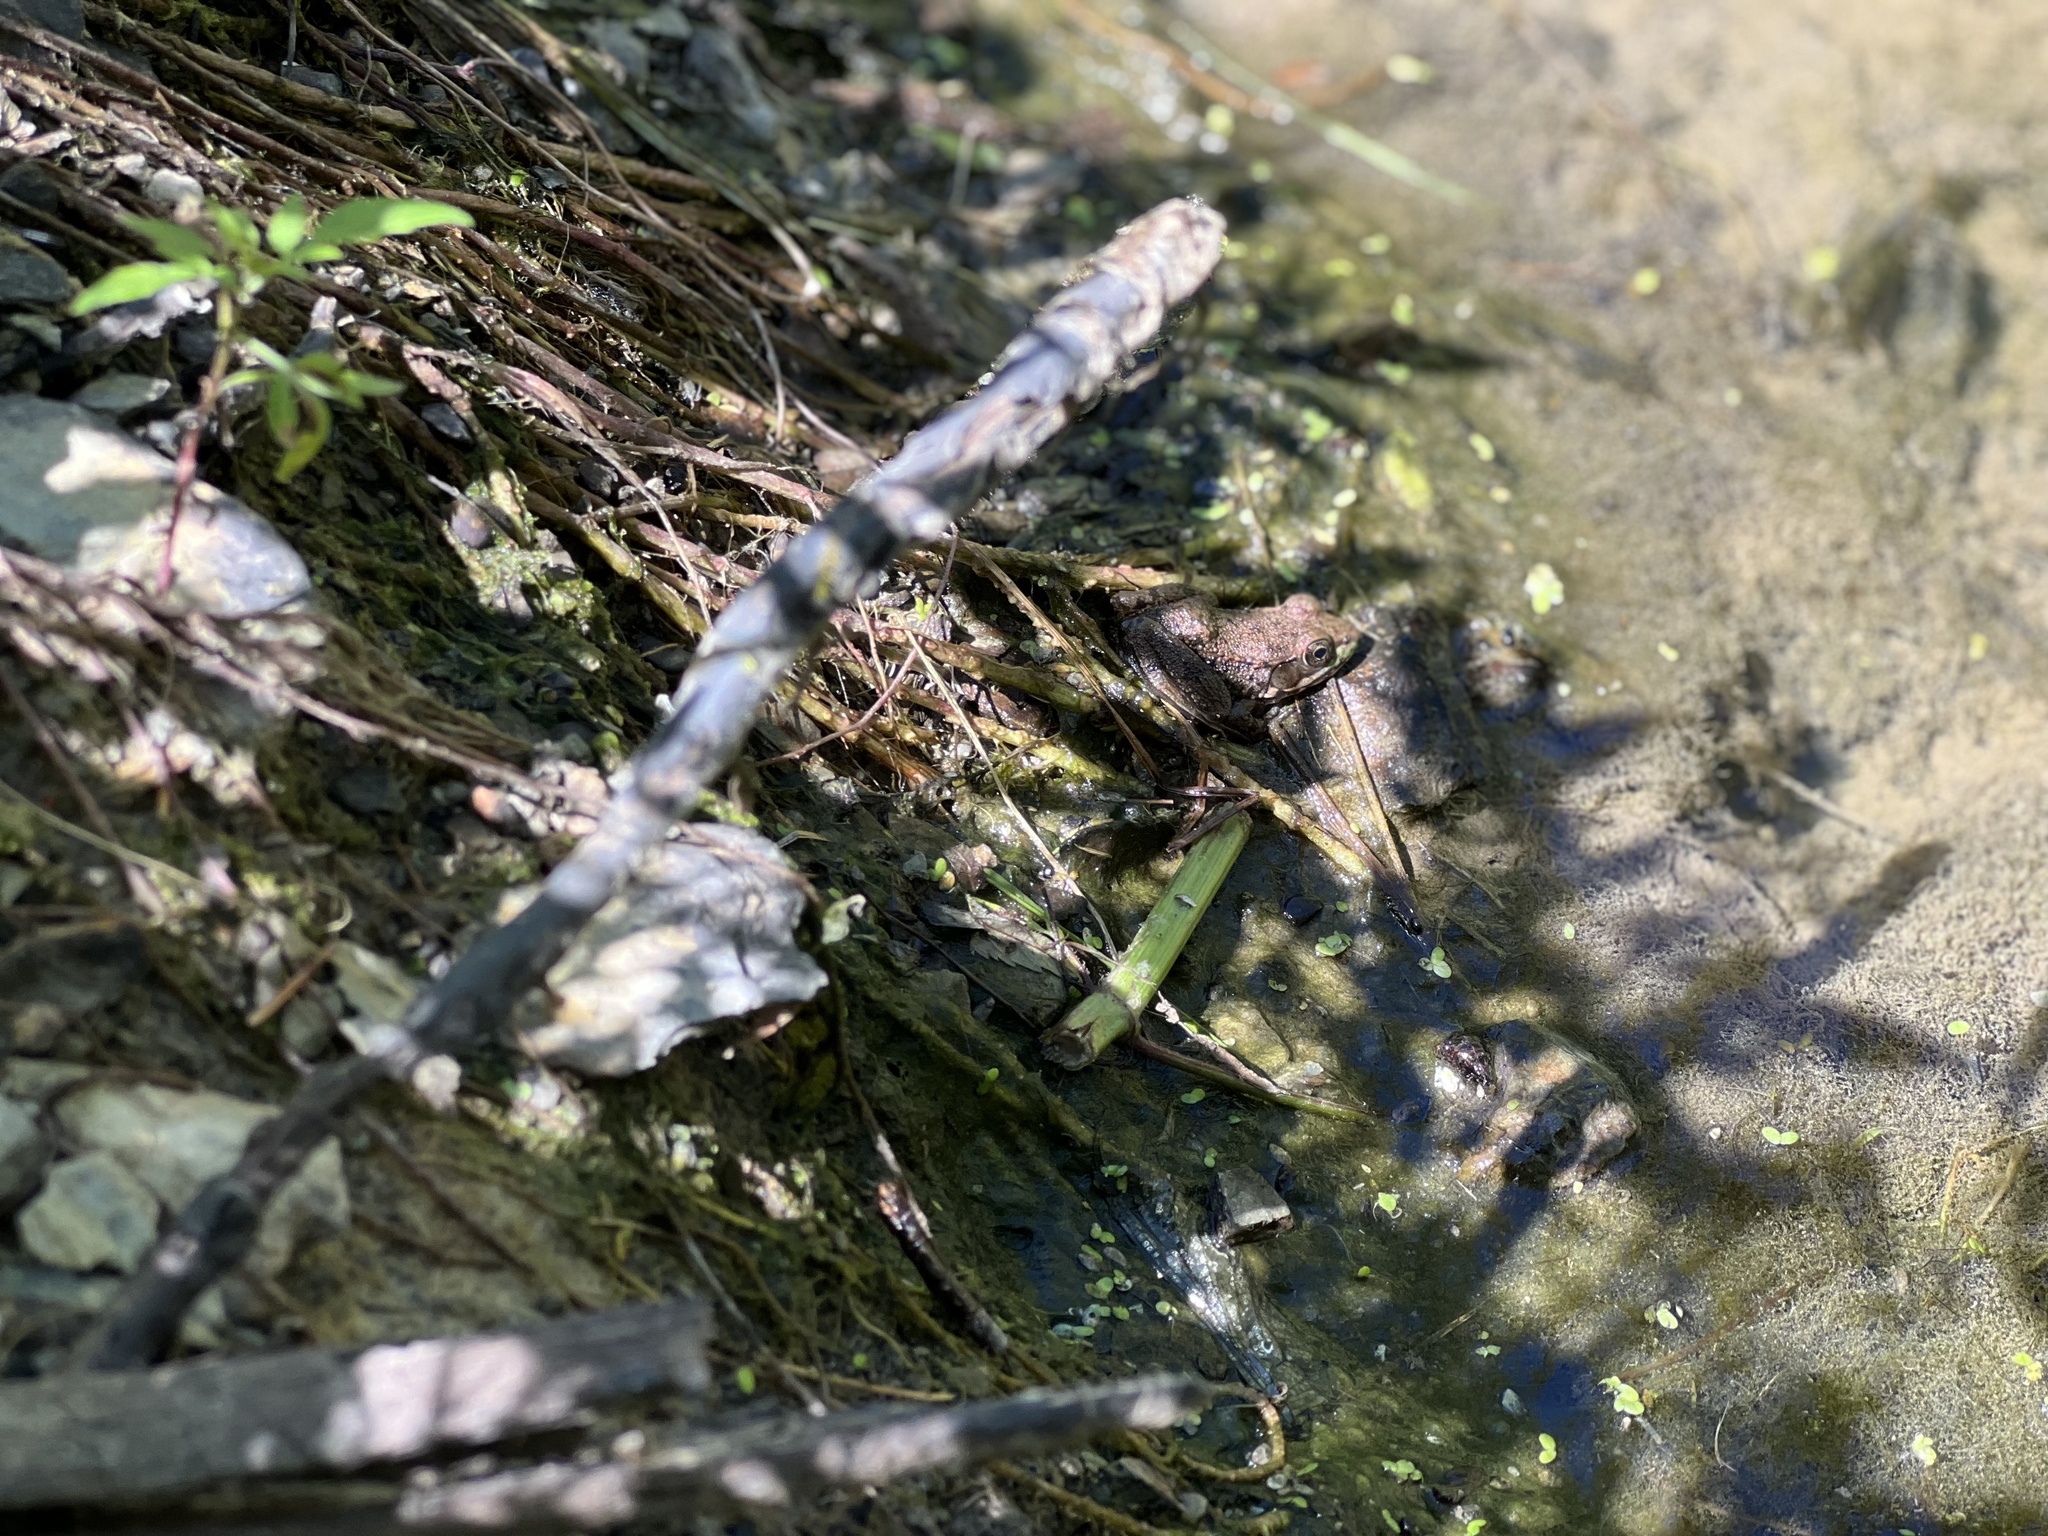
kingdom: Animalia
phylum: Chordata
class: Amphibia
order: Anura
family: Ranidae
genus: Lithobates
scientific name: Lithobates clamitans
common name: Green frog
